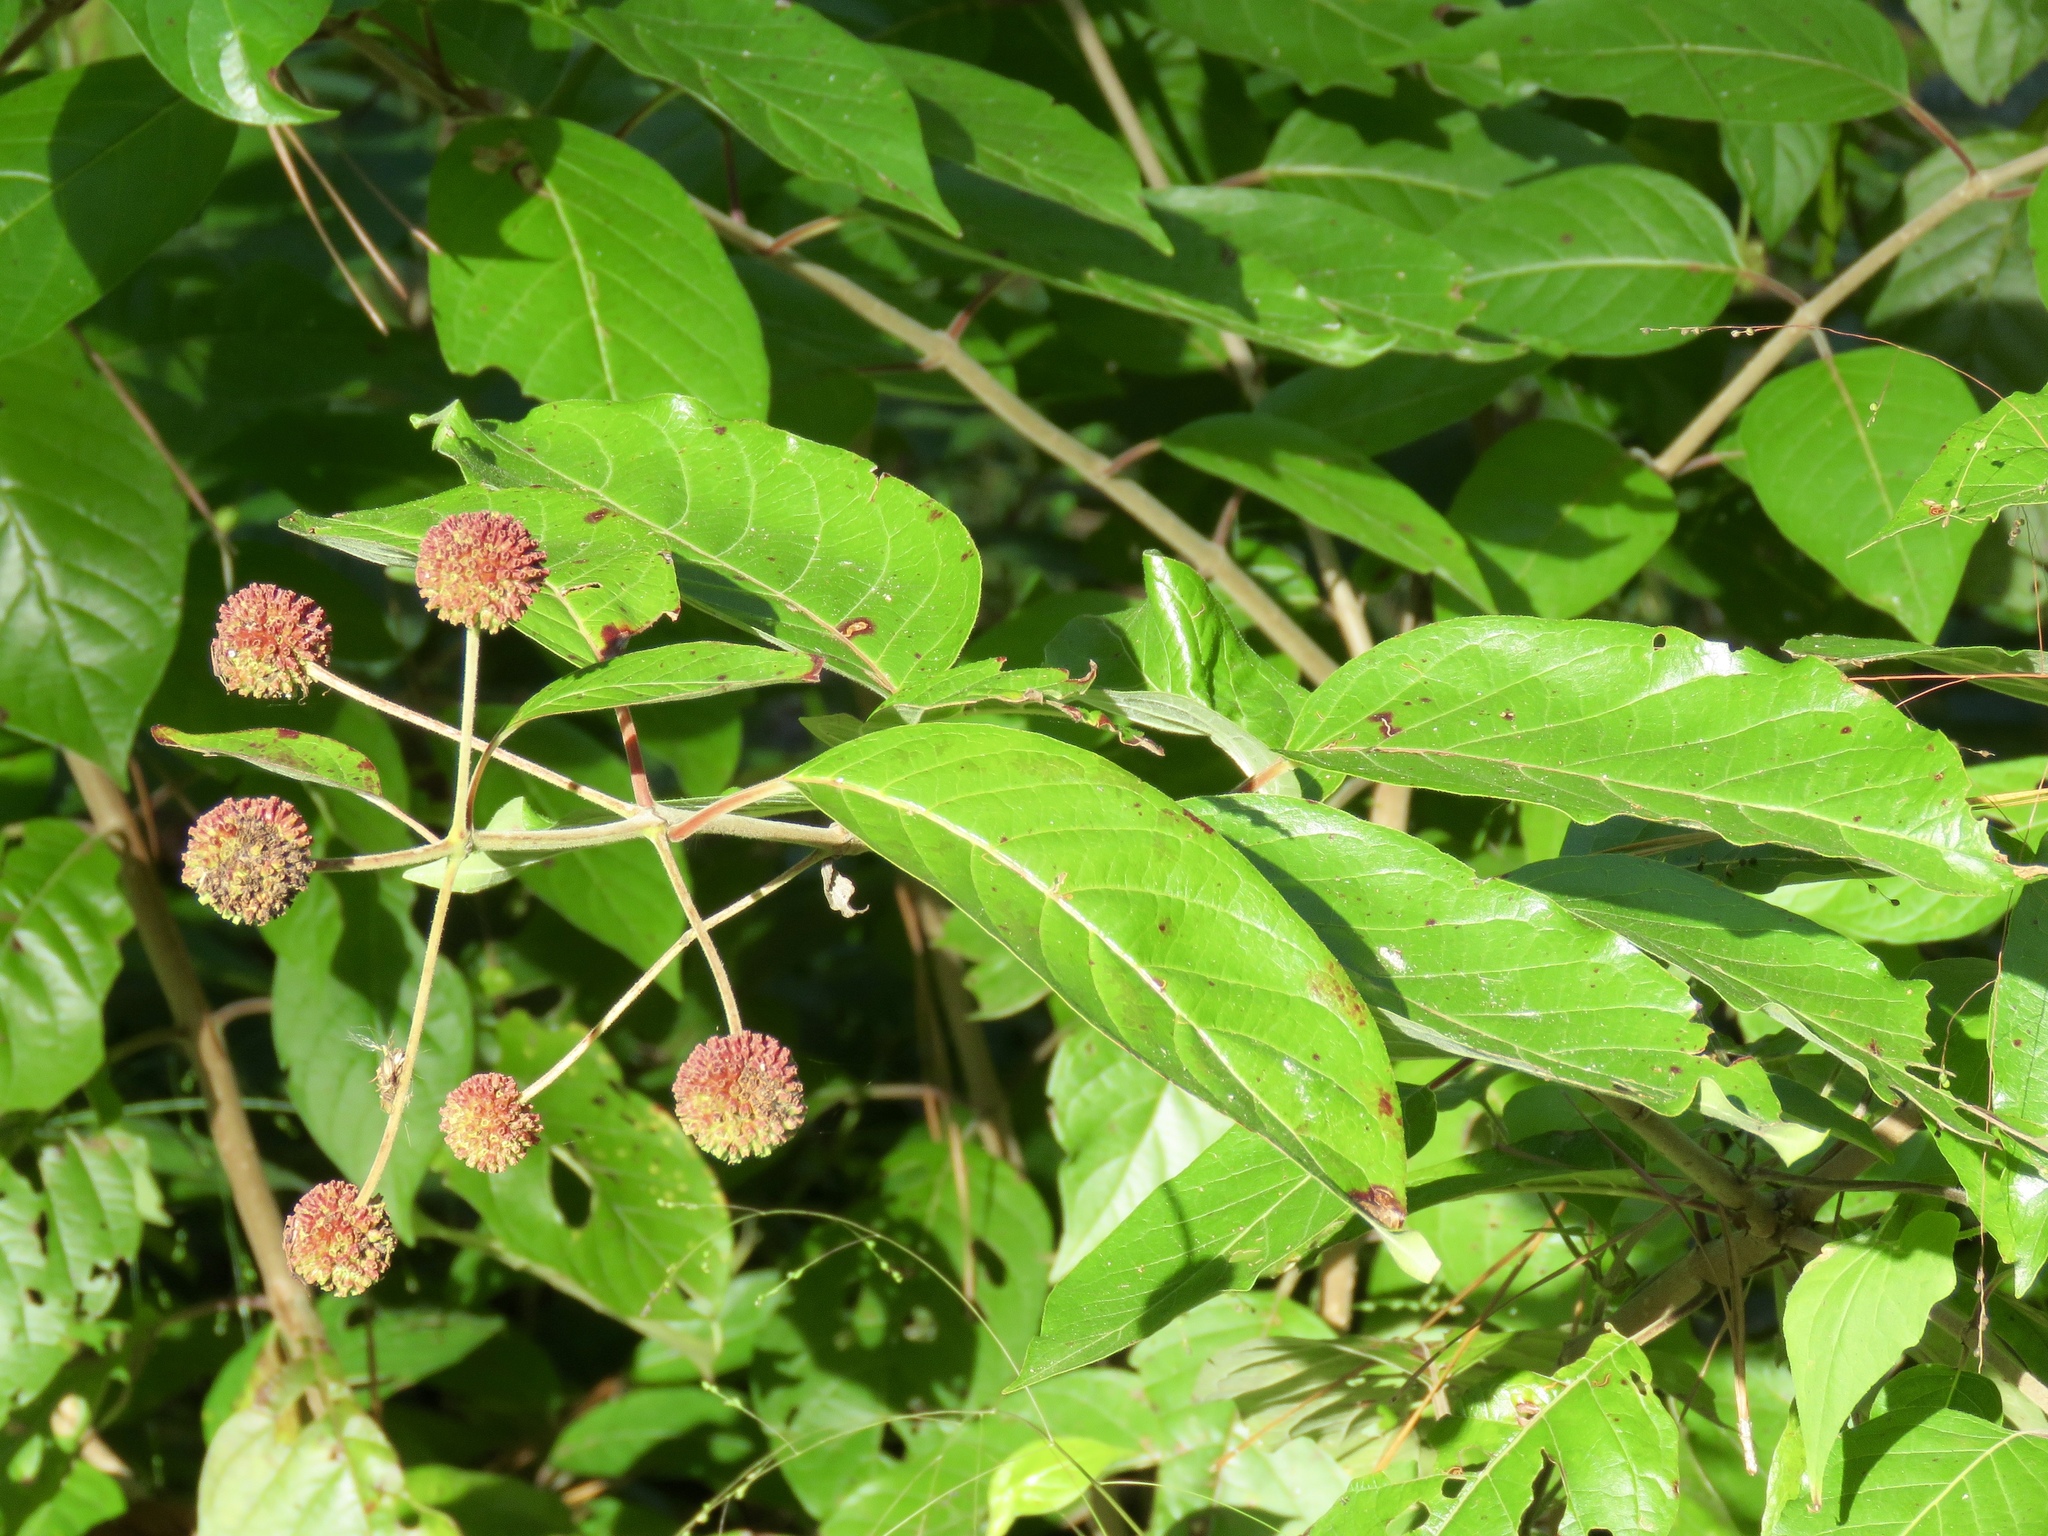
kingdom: Plantae
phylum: Tracheophyta
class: Magnoliopsida
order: Gentianales
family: Rubiaceae
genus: Cephalanthus
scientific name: Cephalanthus occidentalis
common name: Button-willow
